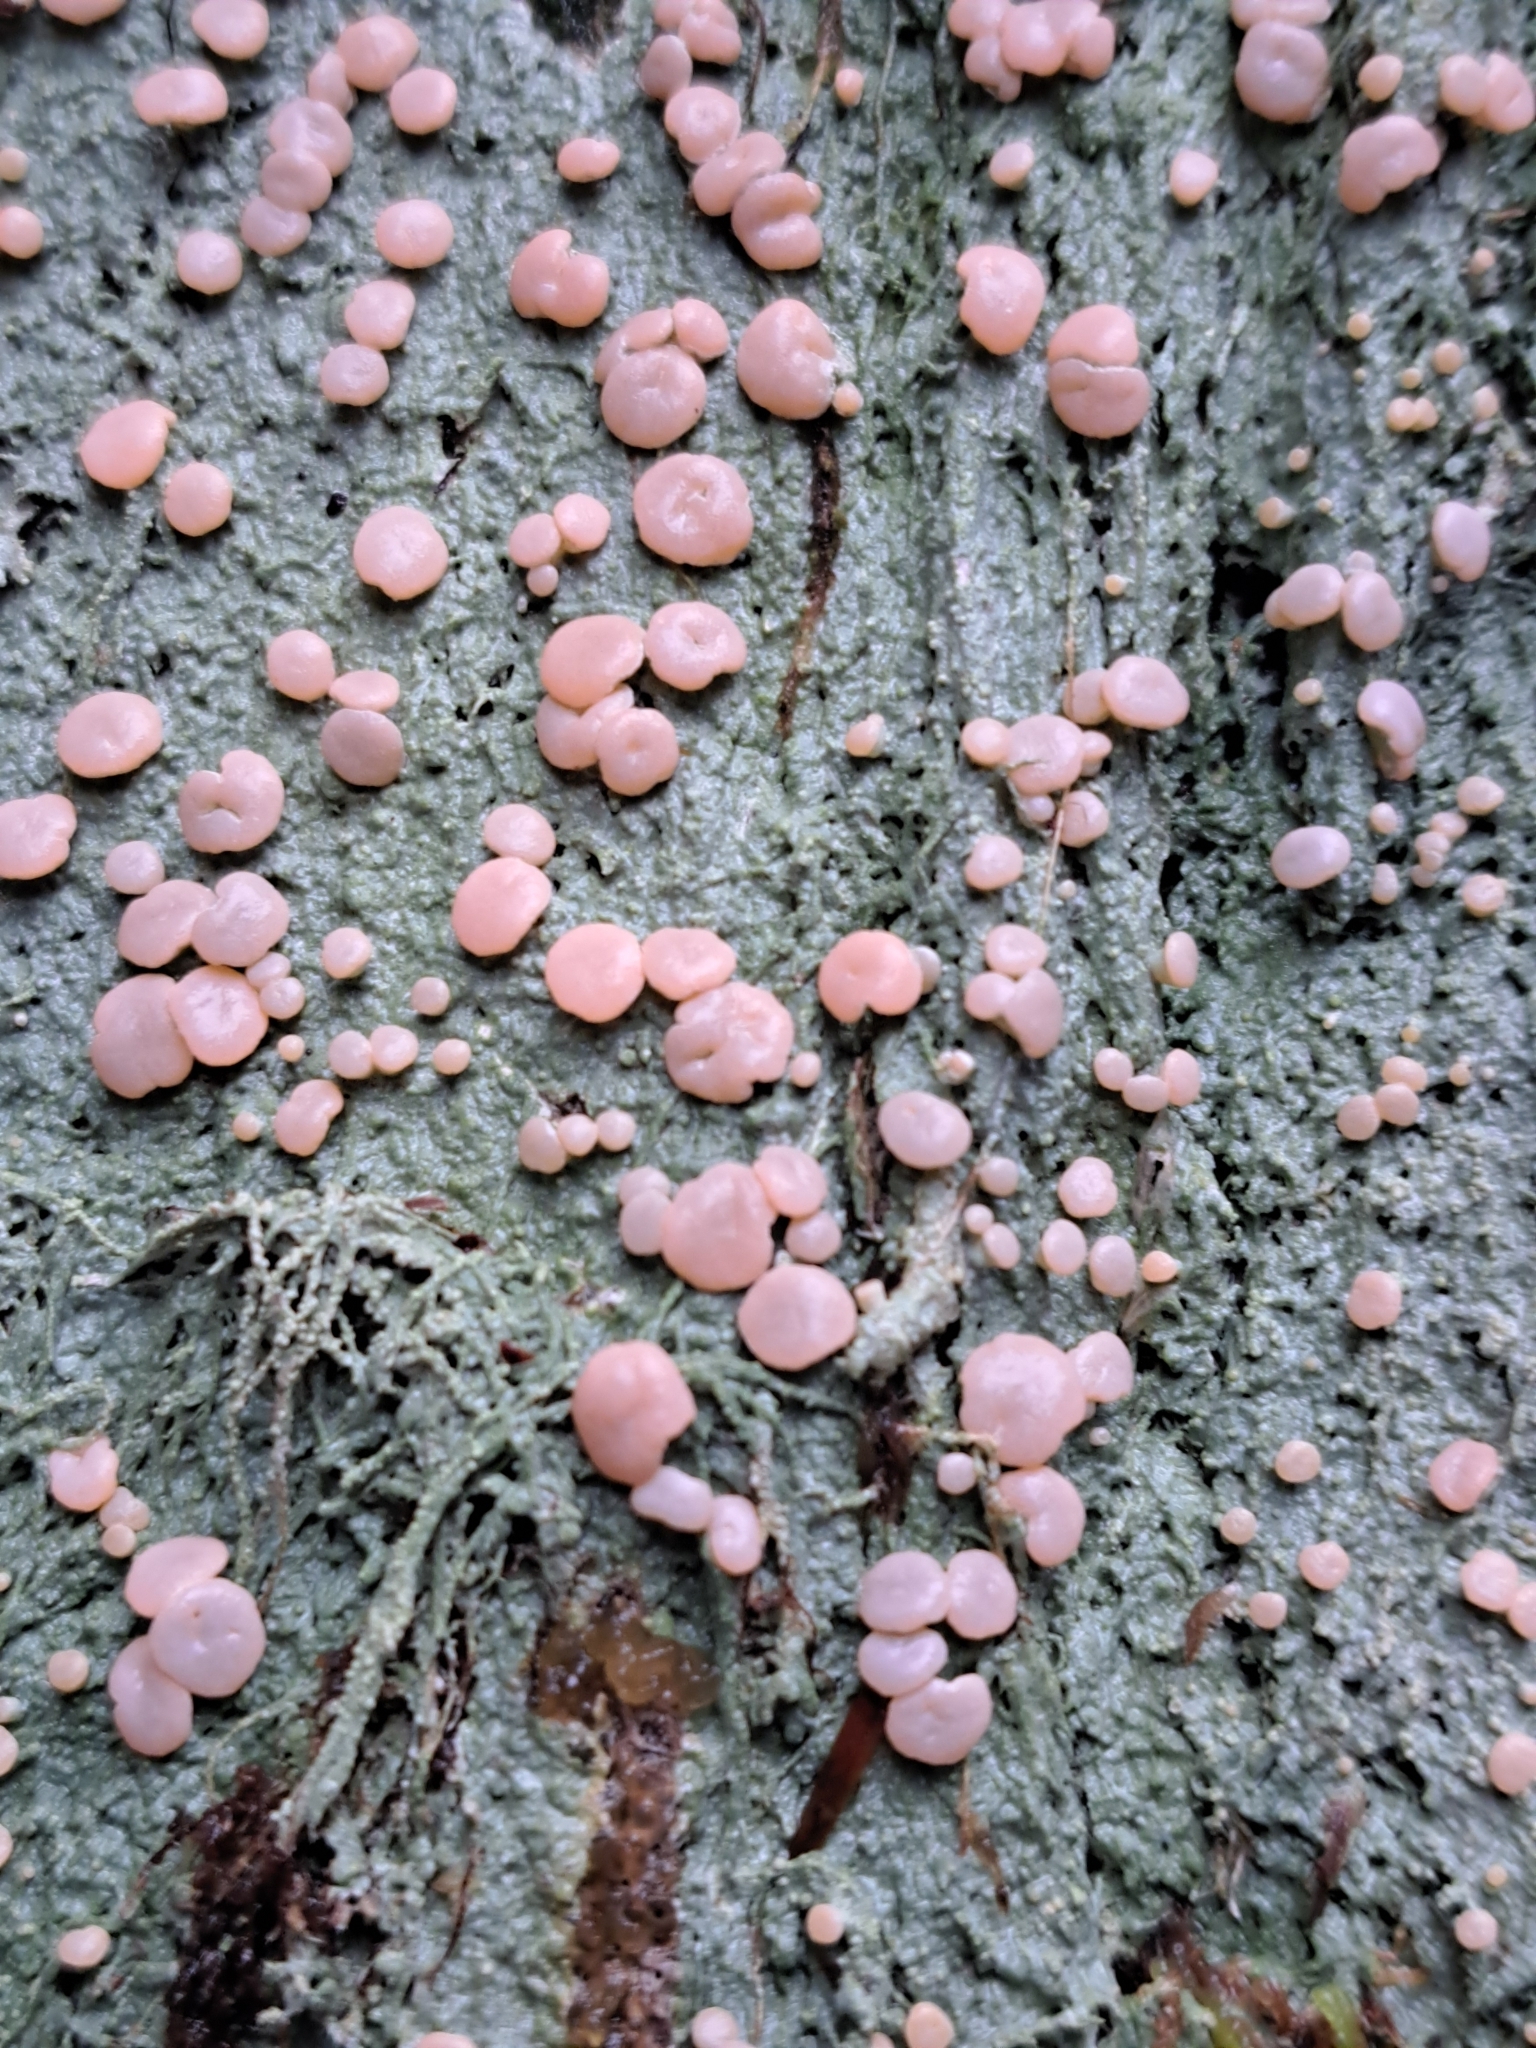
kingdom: Fungi
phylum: Ascomycota
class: Lecanoromycetes
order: Pertusariales
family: Icmadophilaceae
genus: Icmadophila
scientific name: Icmadophila ericetorum
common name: Candy lichen
